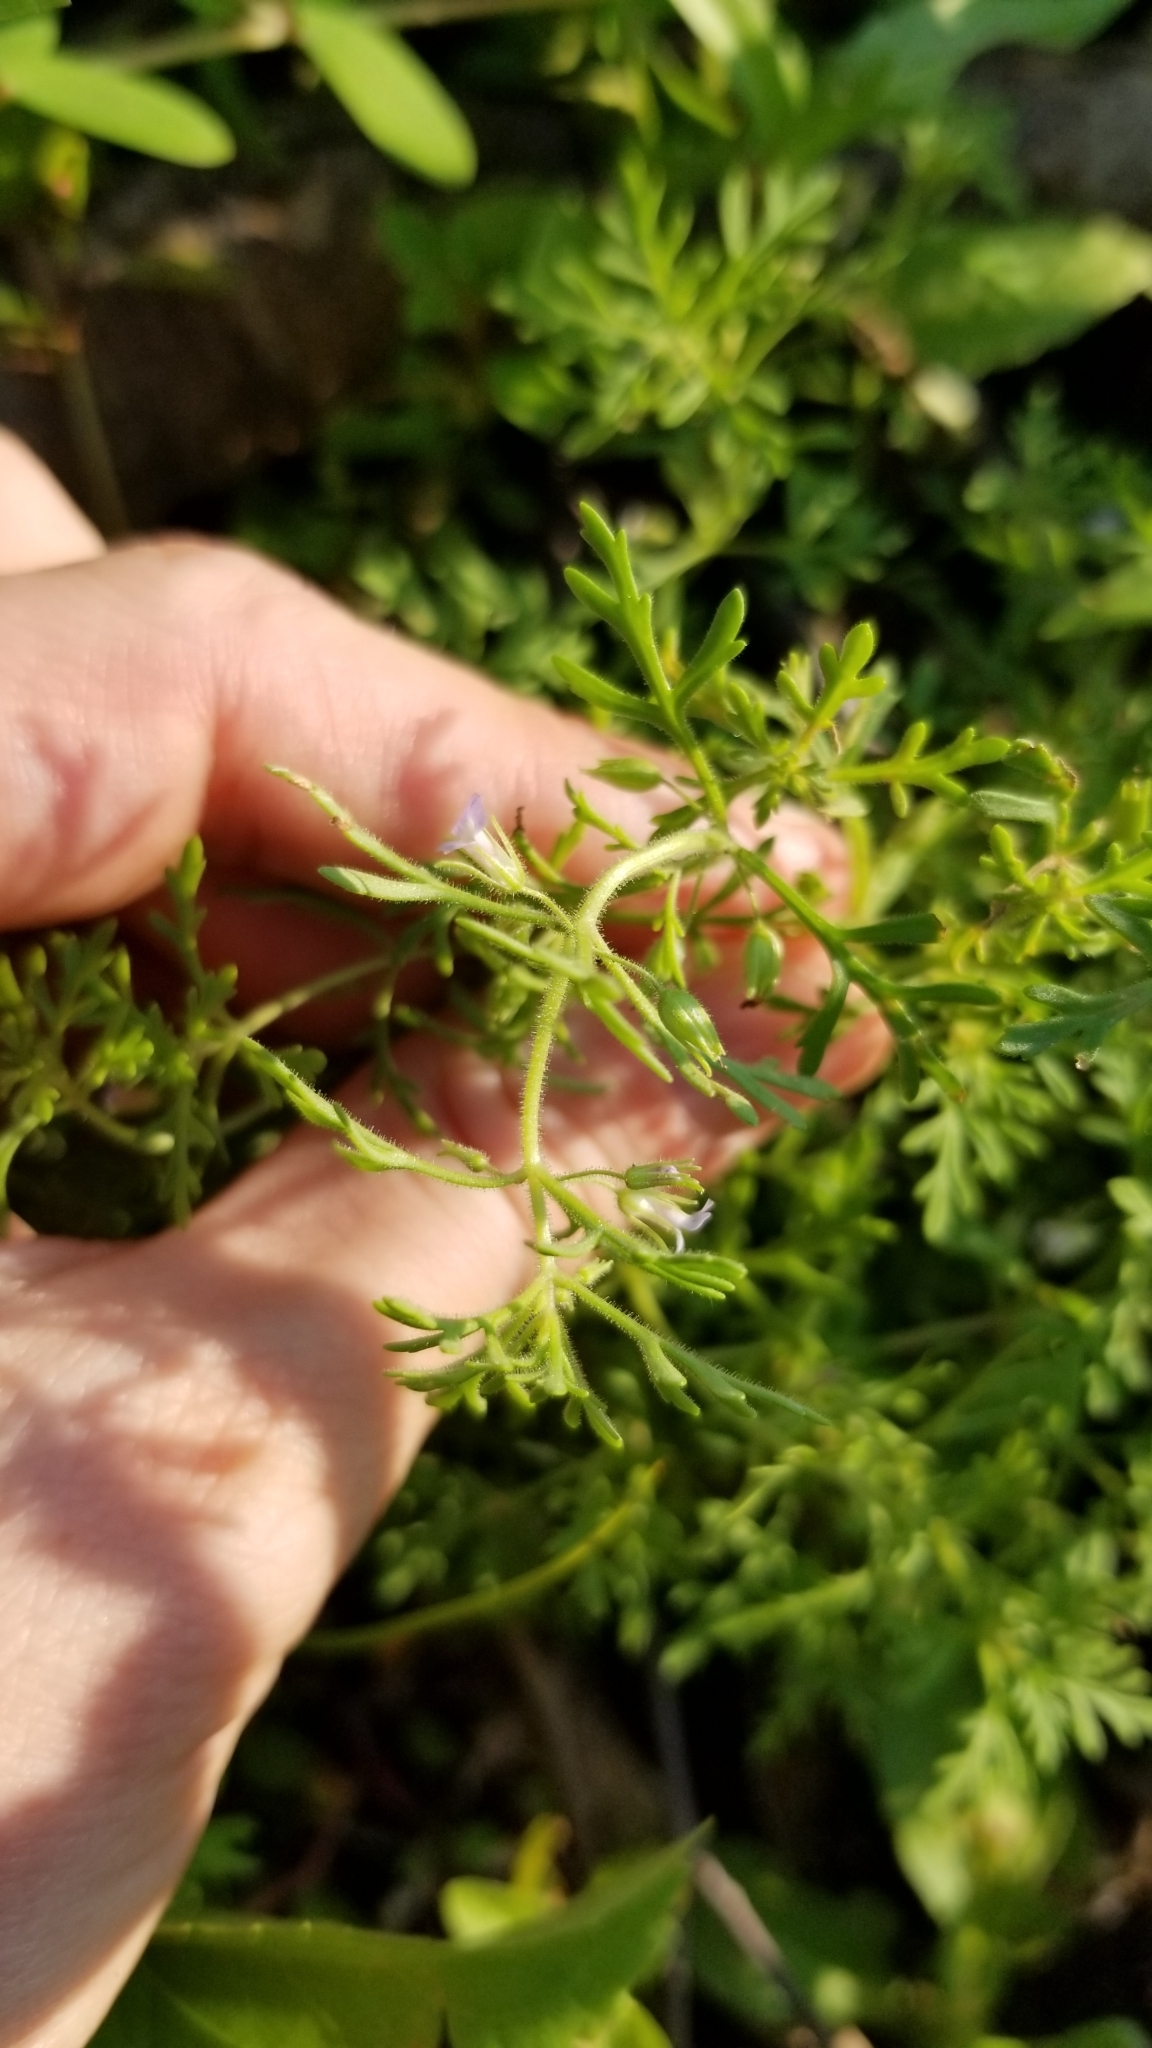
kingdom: Plantae
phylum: Tracheophyta
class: Magnoliopsida
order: Lamiales
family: Plantaginaceae
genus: Leucospora
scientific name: Leucospora multifida
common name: Narrow-leaf paleseed
